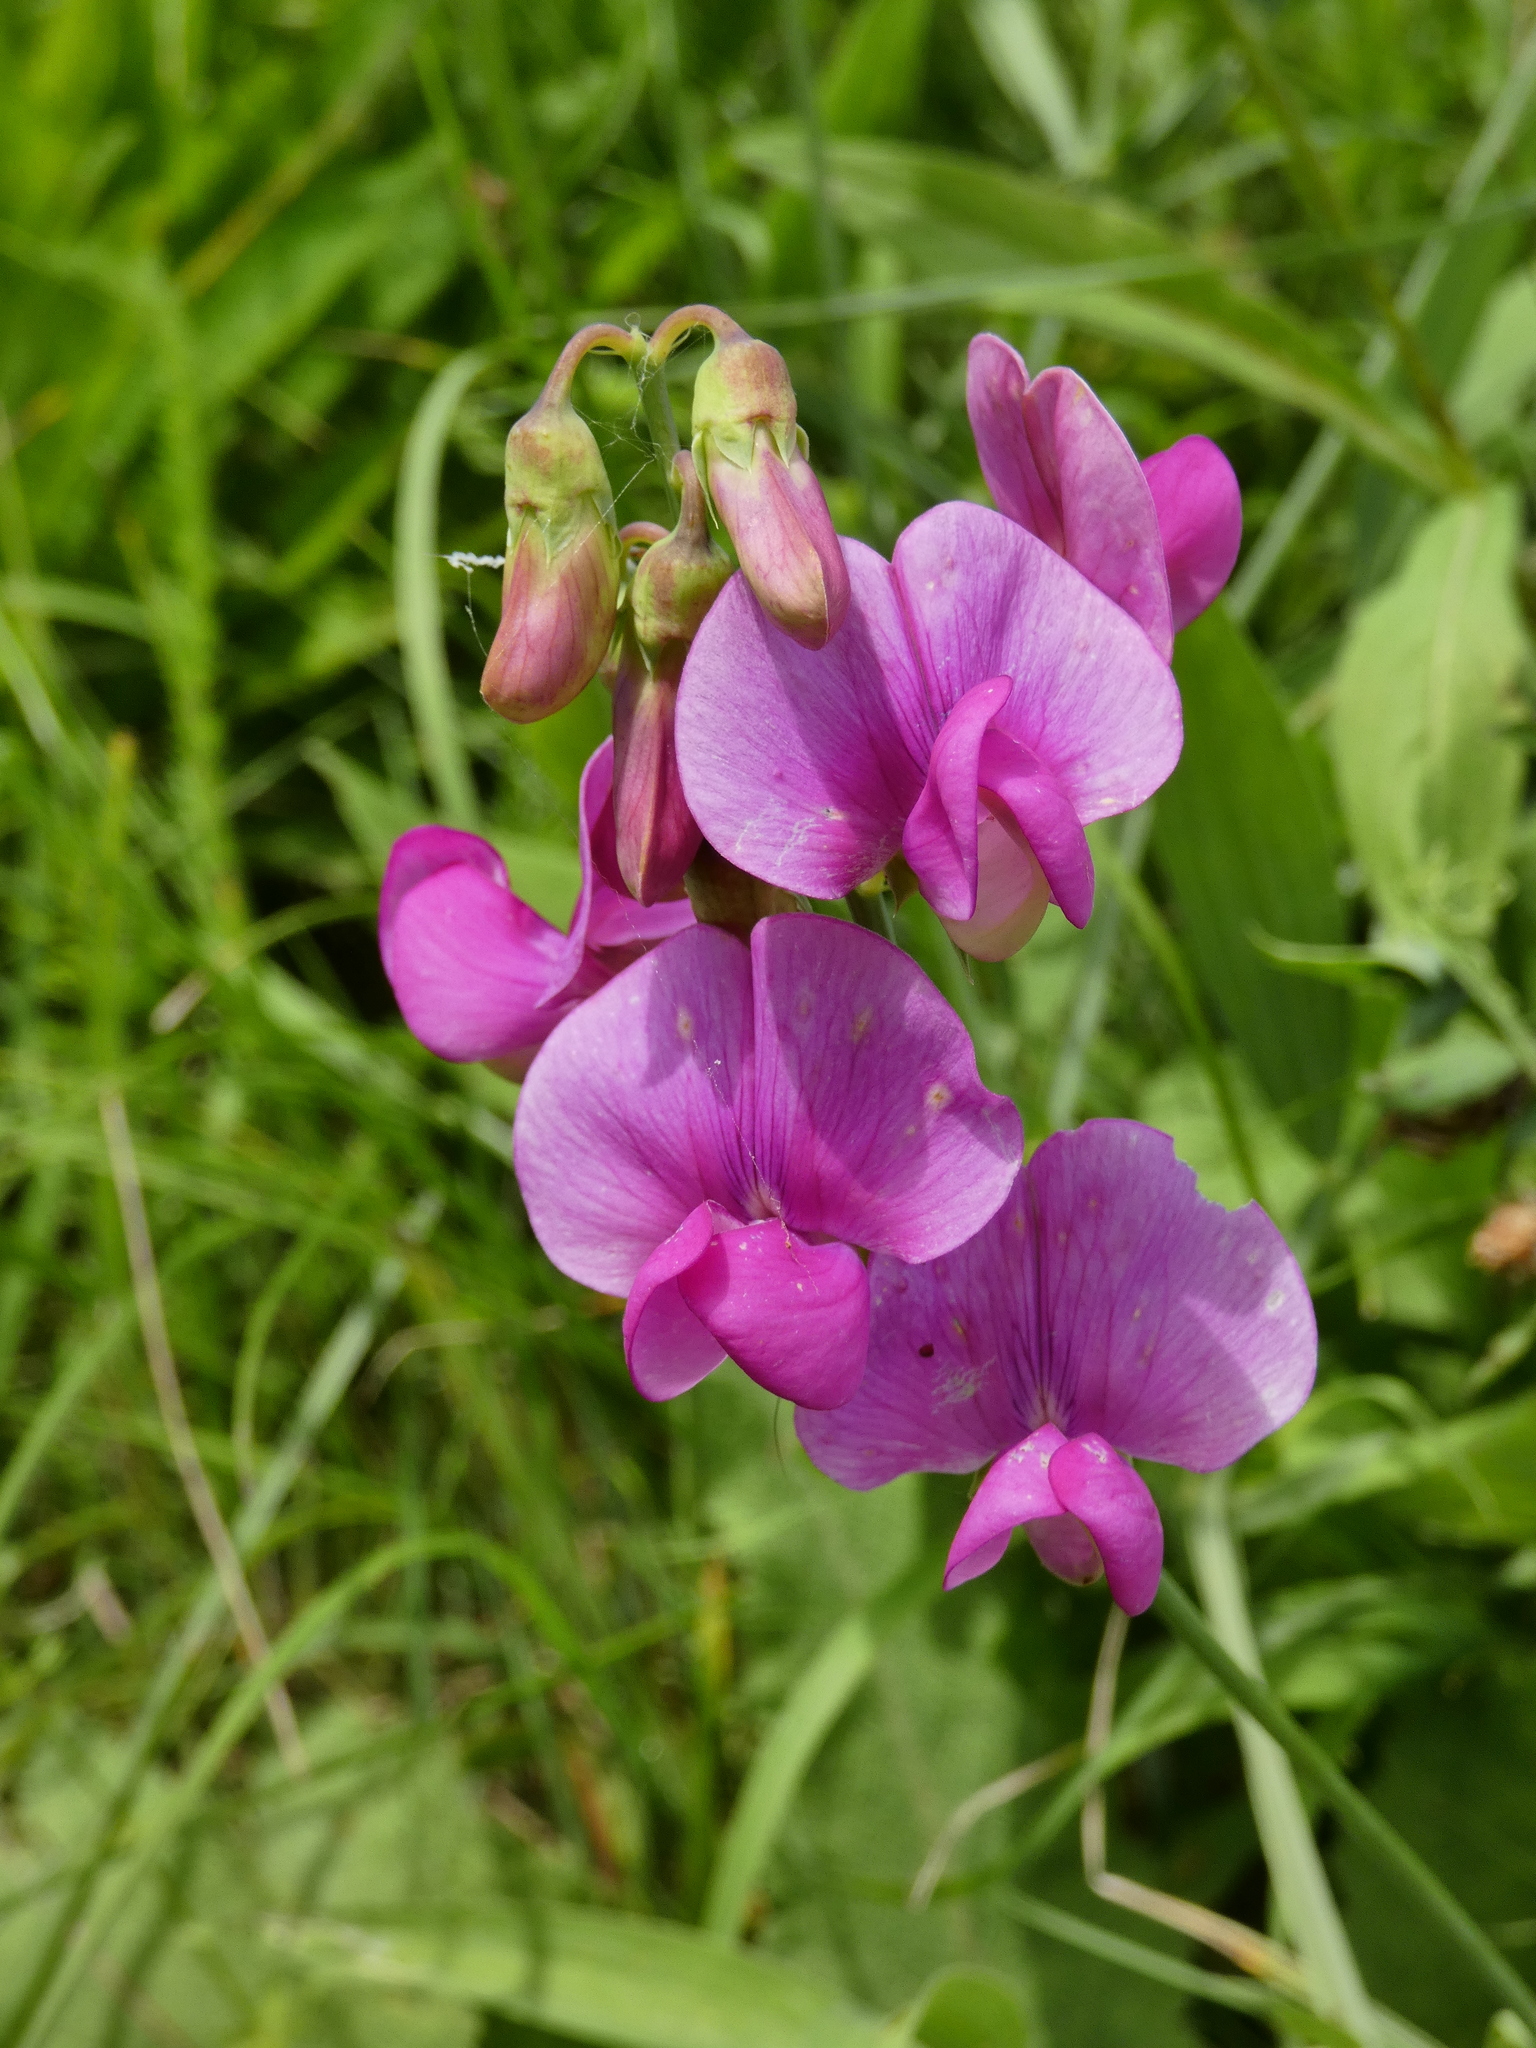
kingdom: Plantae
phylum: Tracheophyta
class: Magnoliopsida
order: Fabales
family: Fabaceae
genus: Lathyrus
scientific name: Lathyrus latifolius
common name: Perennial pea
